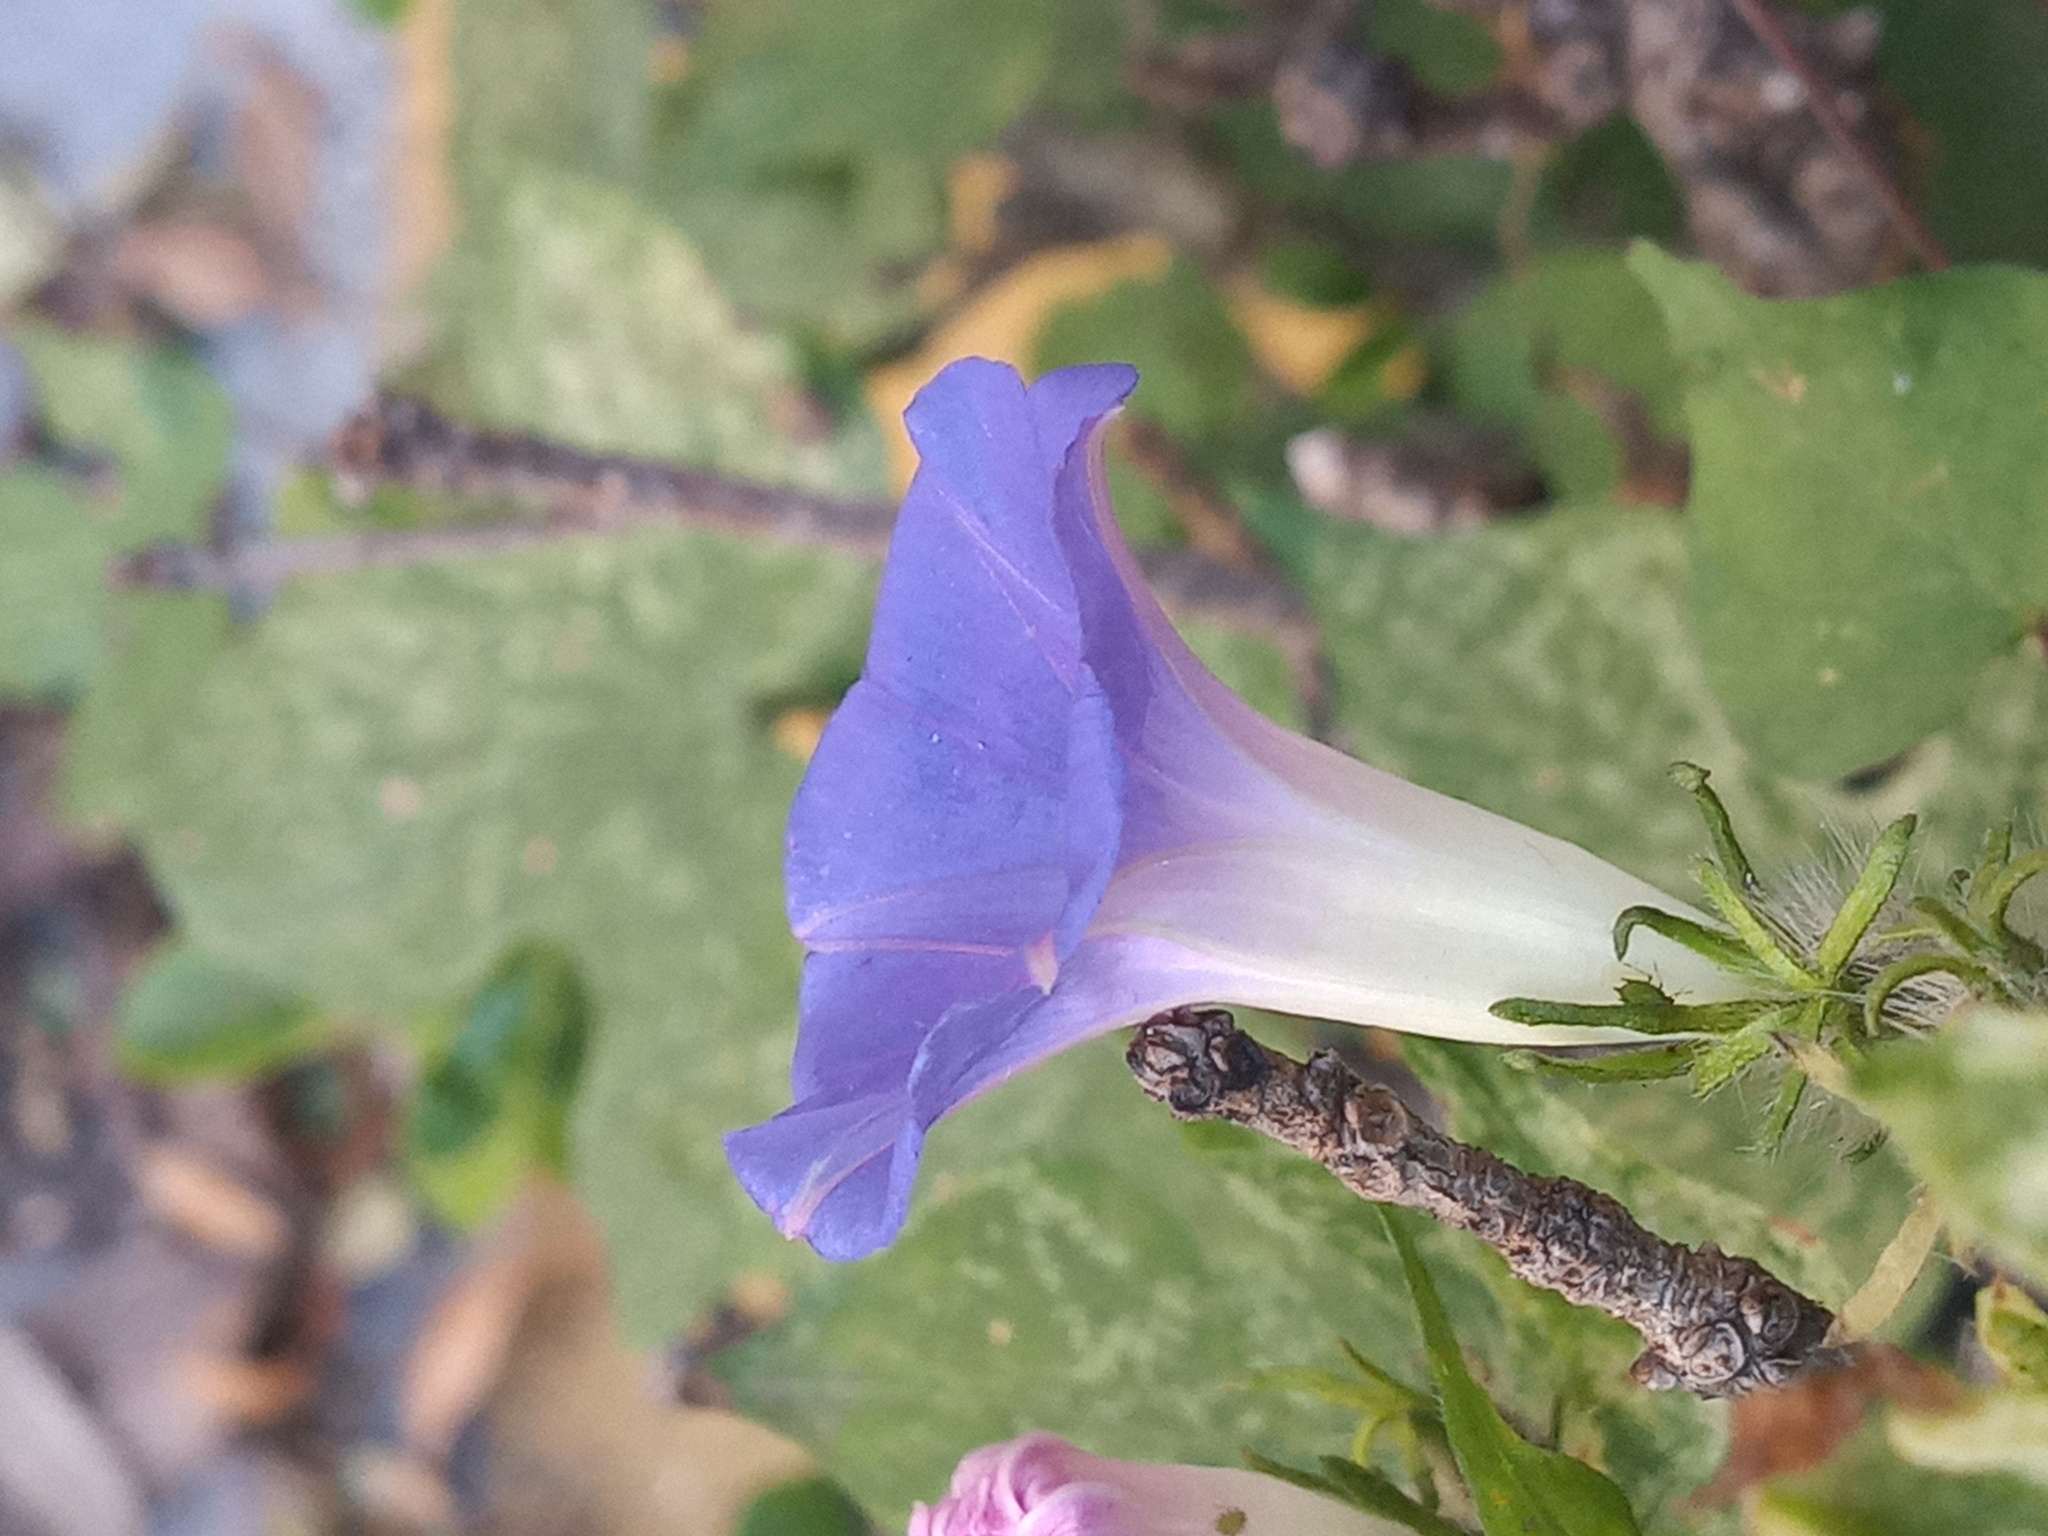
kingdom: Plantae
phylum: Tracheophyta
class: Magnoliopsida
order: Solanales
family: Convolvulaceae
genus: Ipomoea
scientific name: Ipomoea hederacea
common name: Ivy-leaved morning-glory
